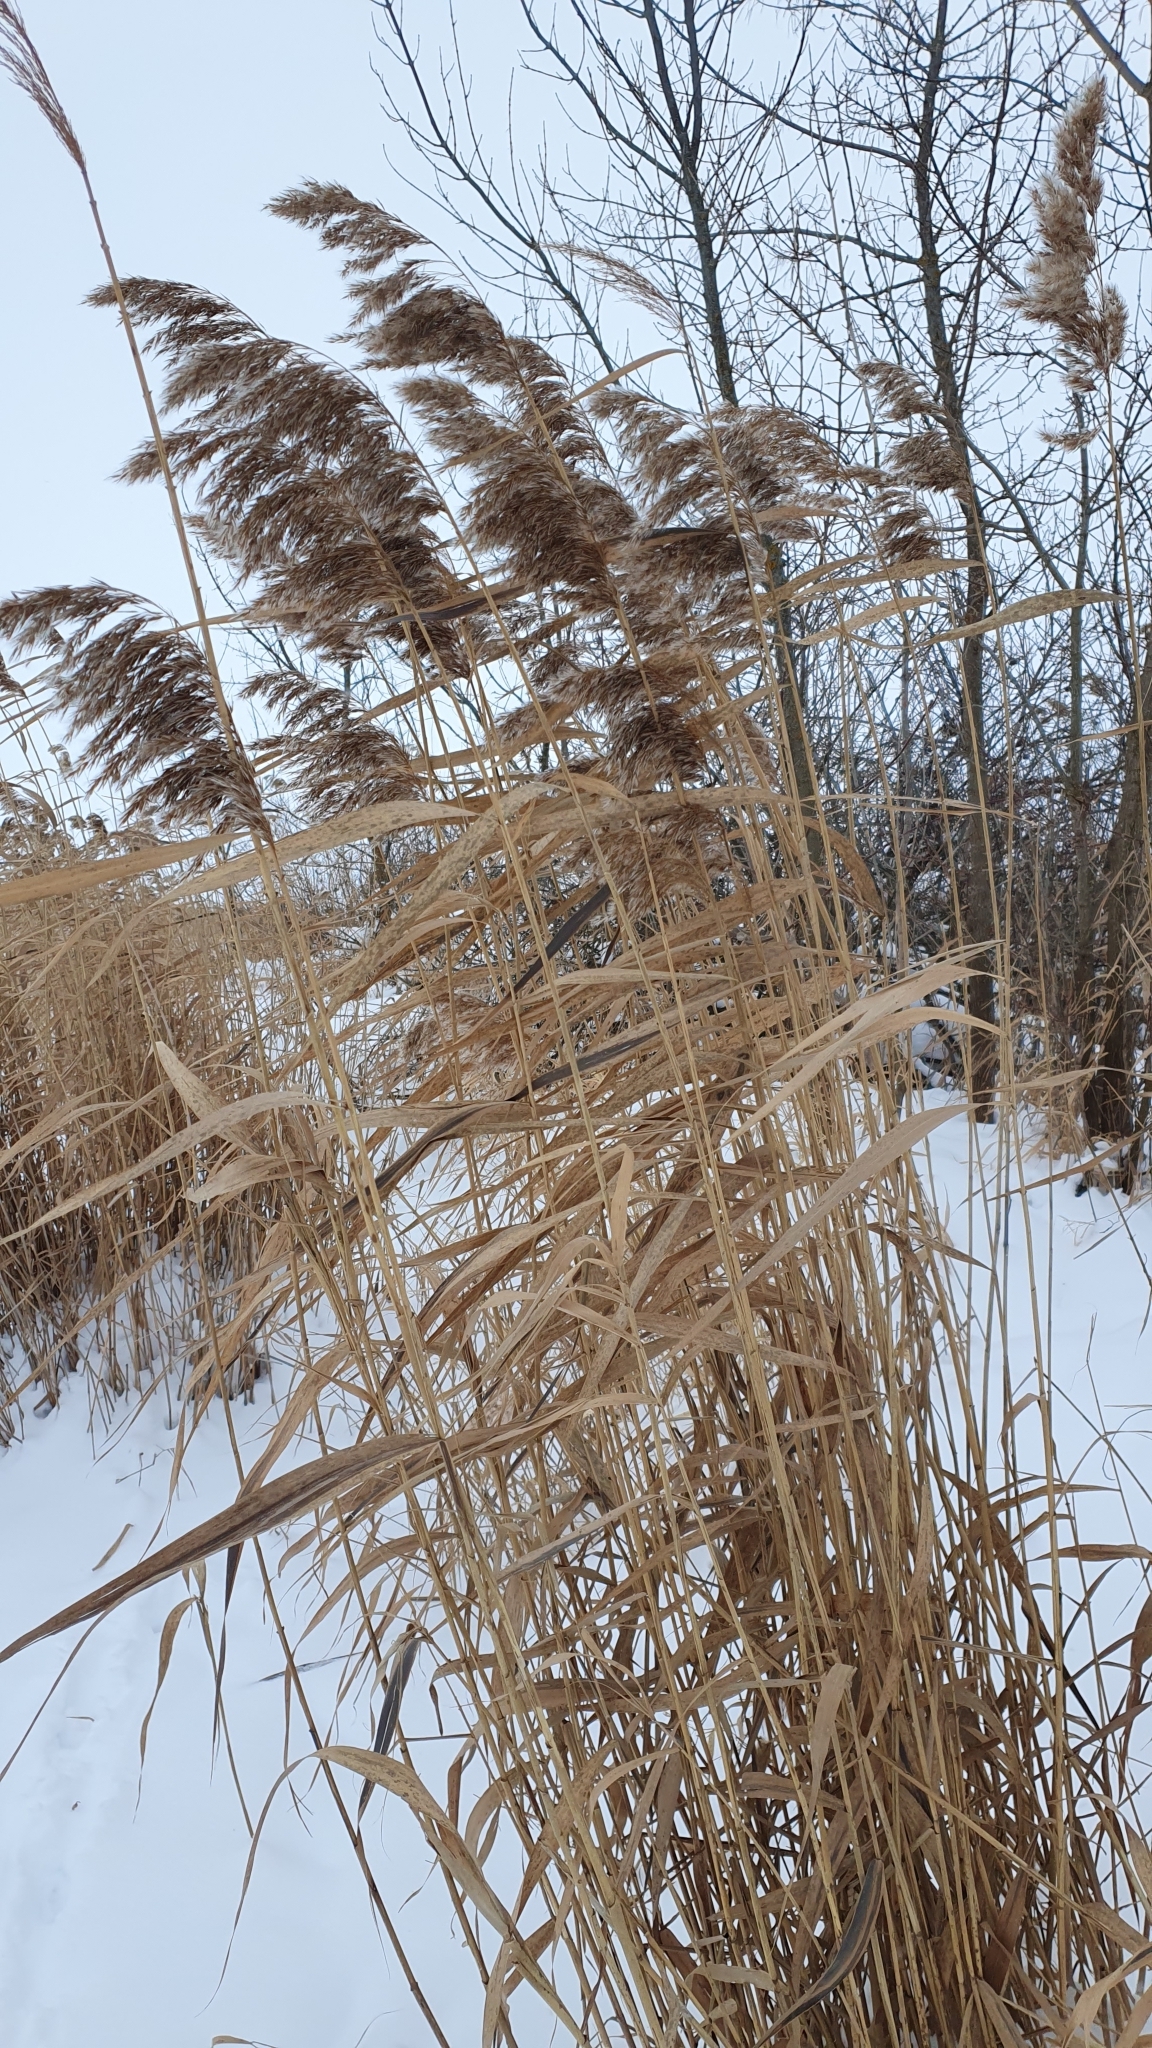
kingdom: Plantae
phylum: Tracheophyta
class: Liliopsida
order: Poales
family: Poaceae
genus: Phragmites
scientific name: Phragmites australis
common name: Common reed
